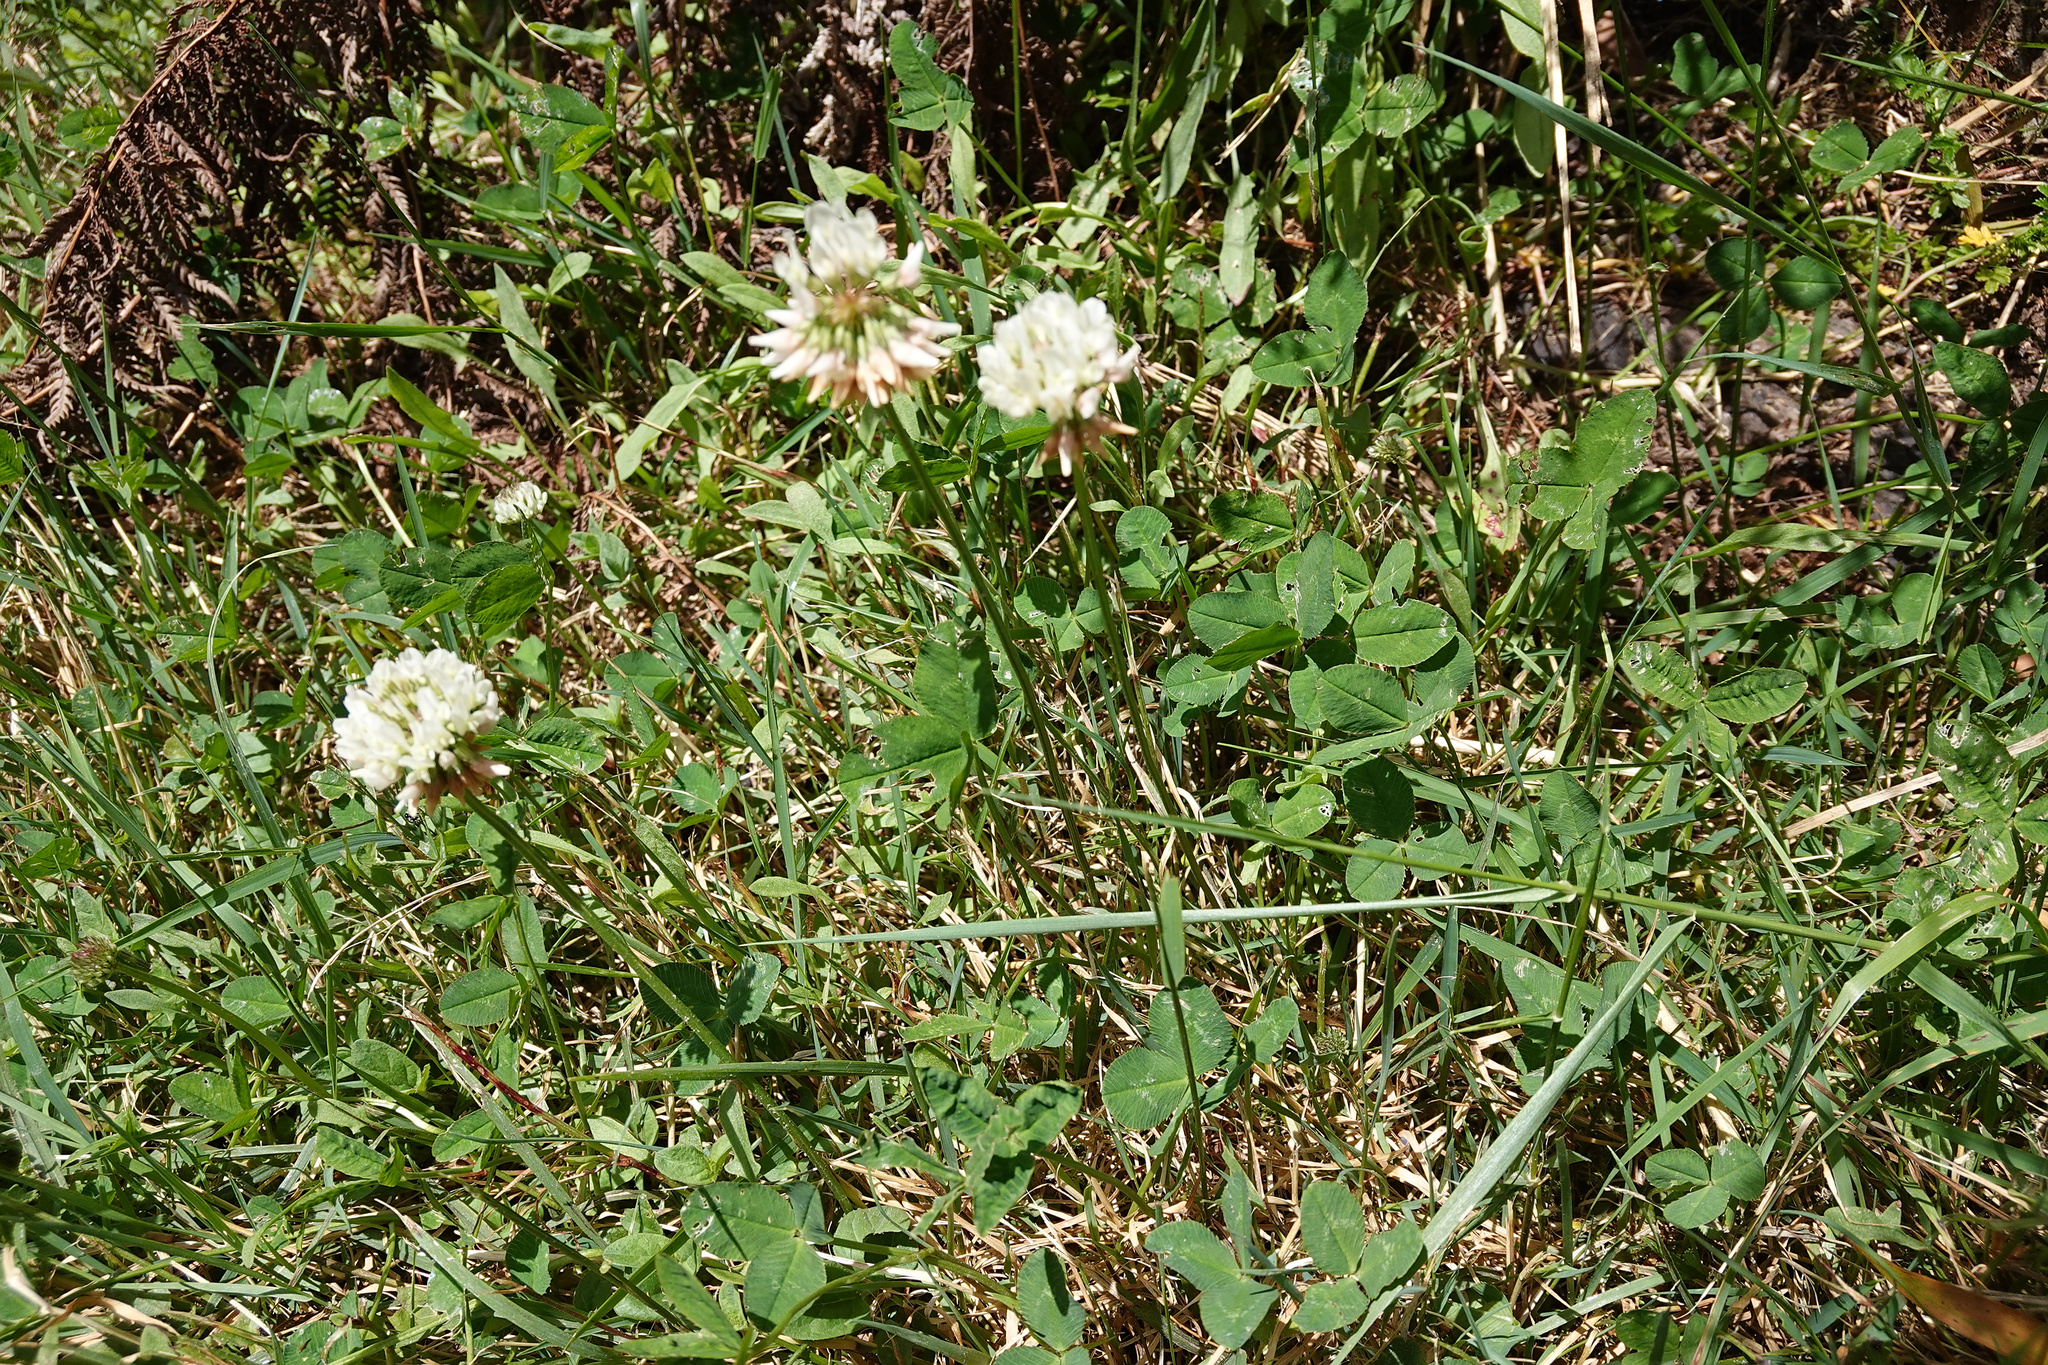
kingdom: Plantae
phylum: Tracheophyta
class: Magnoliopsida
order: Fabales
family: Fabaceae
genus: Trifolium
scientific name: Trifolium repens
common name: White clover
